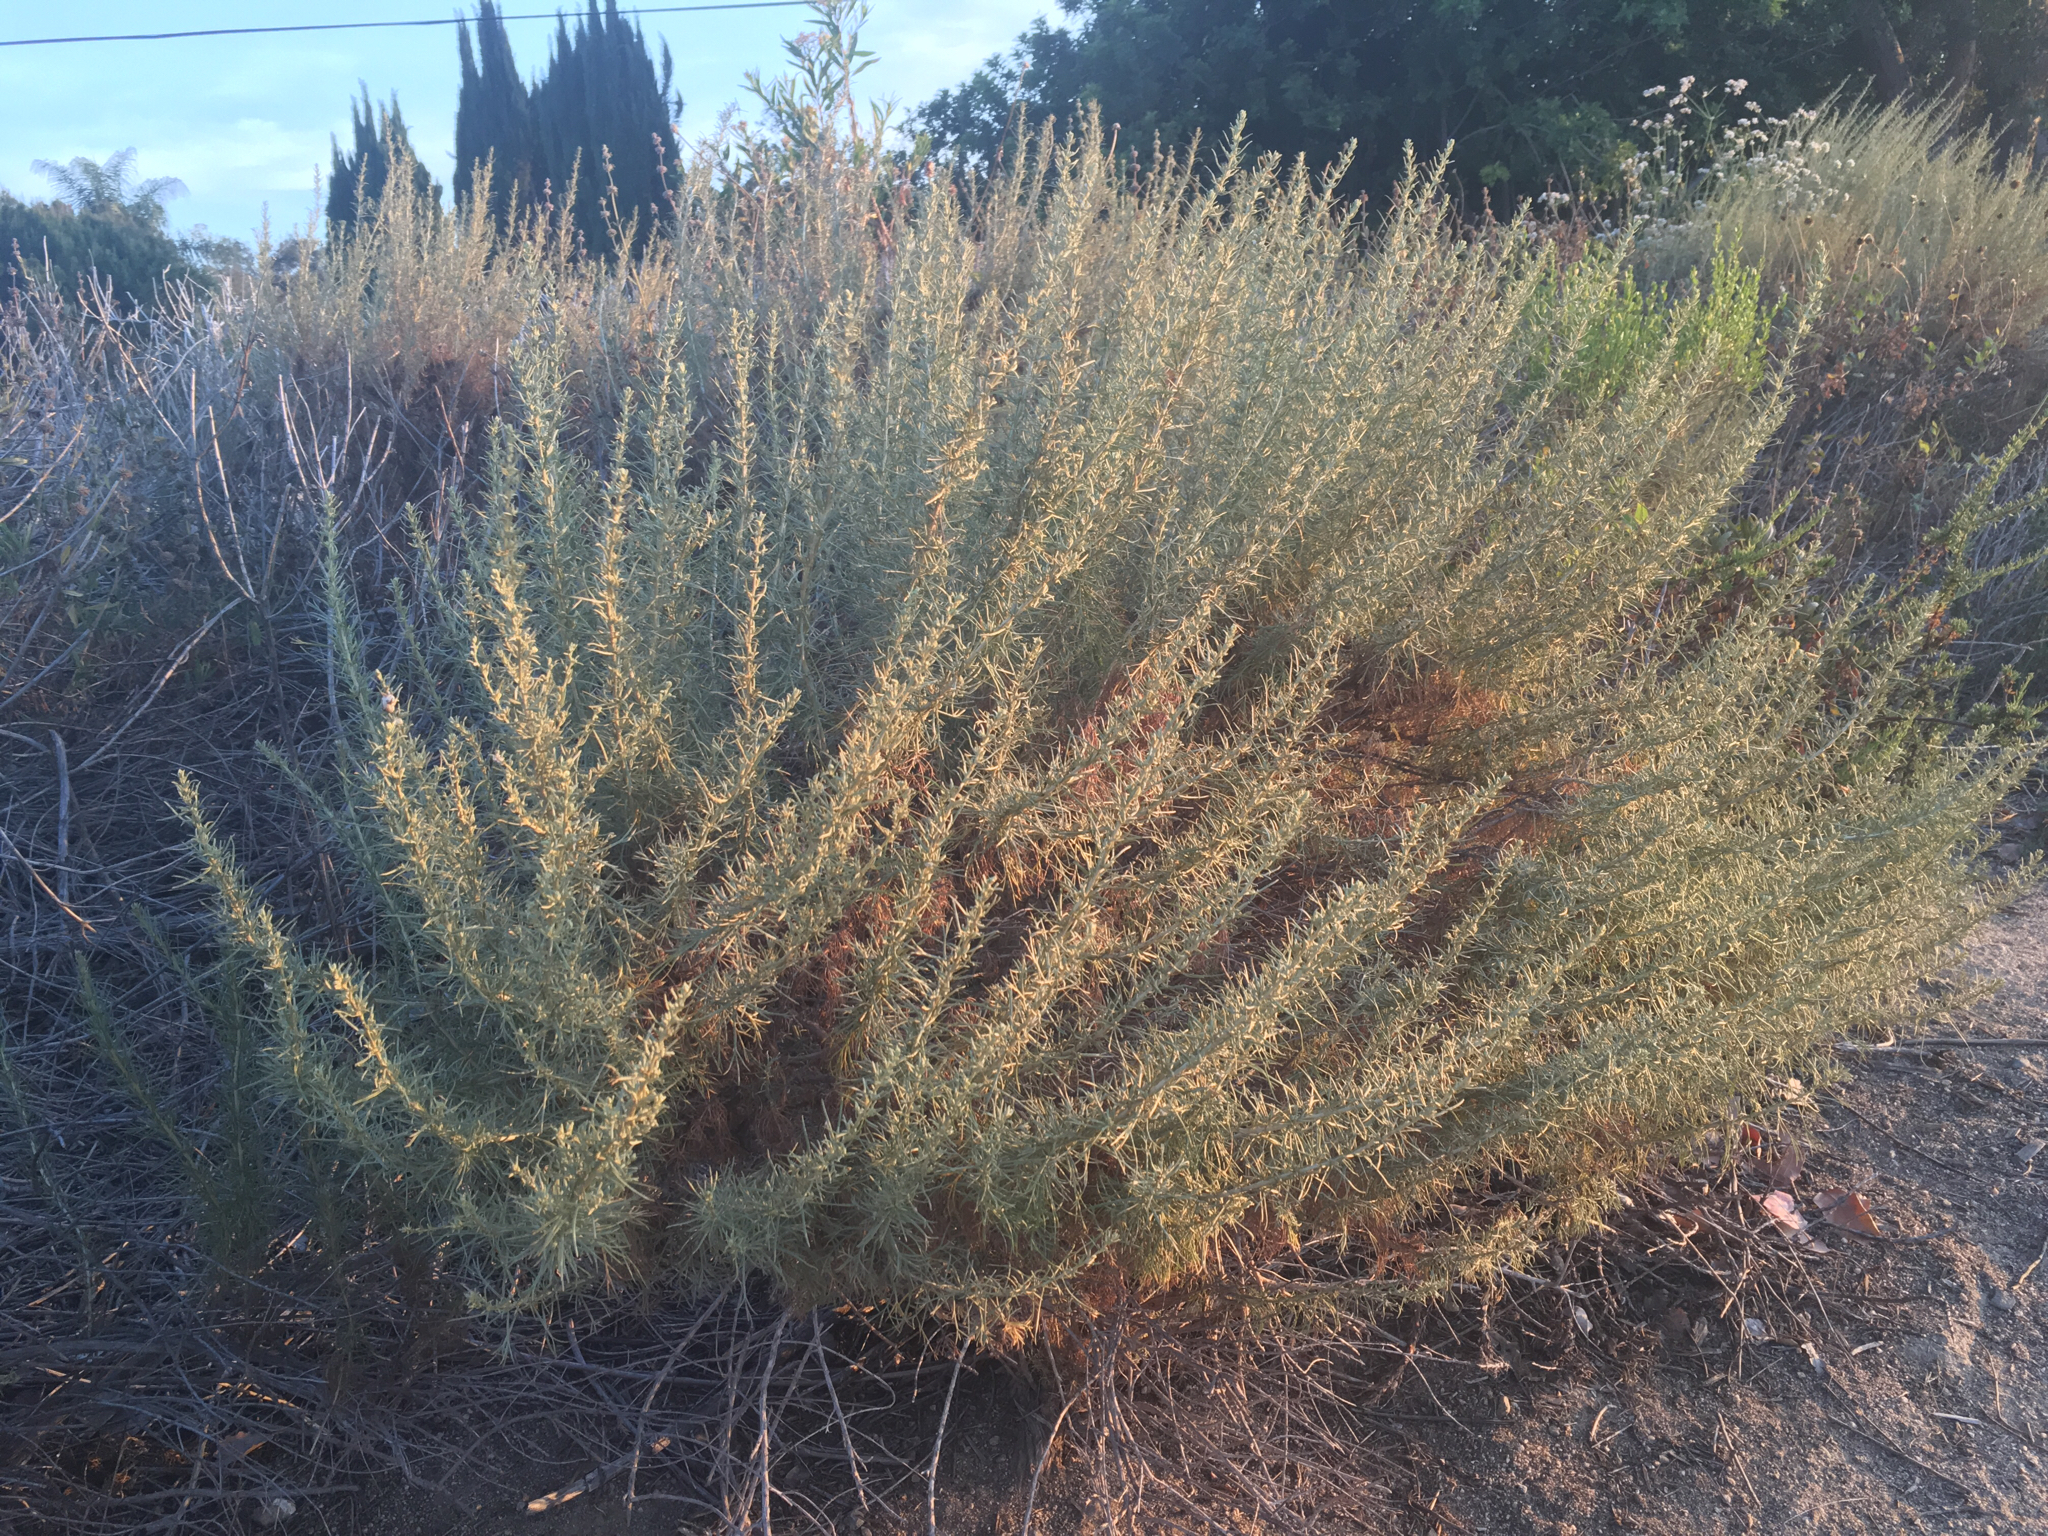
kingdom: Plantae
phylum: Tracheophyta
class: Magnoliopsida
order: Asterales
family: Asteraceae
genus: Artemisia
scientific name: Artemisia californica
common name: California sagebrush
